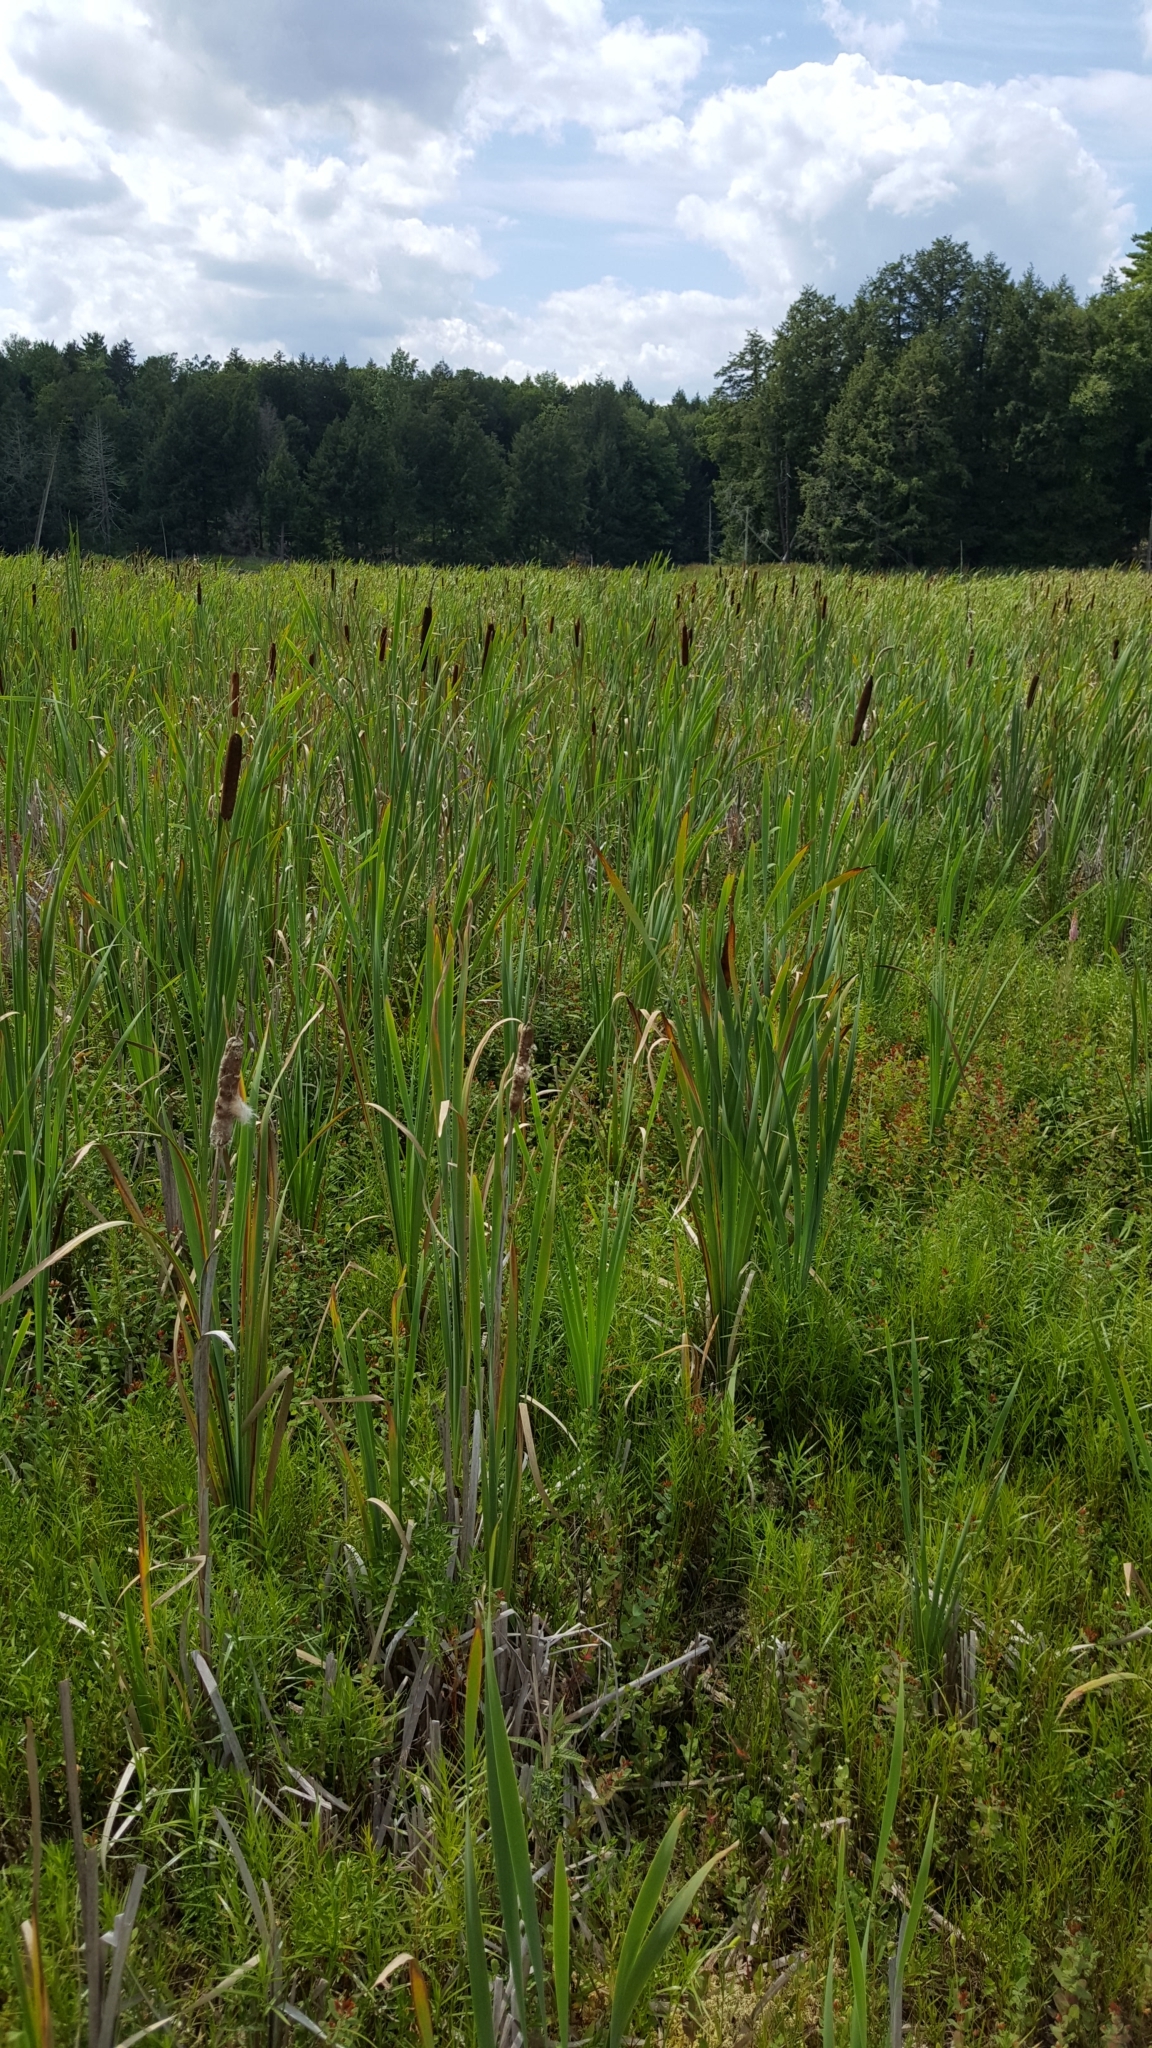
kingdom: Plantae
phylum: Tracheophyta
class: Liliopsida
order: Poales
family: Typhaceae
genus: Typha
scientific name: Typha latifolia
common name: Broadleaf cattail
